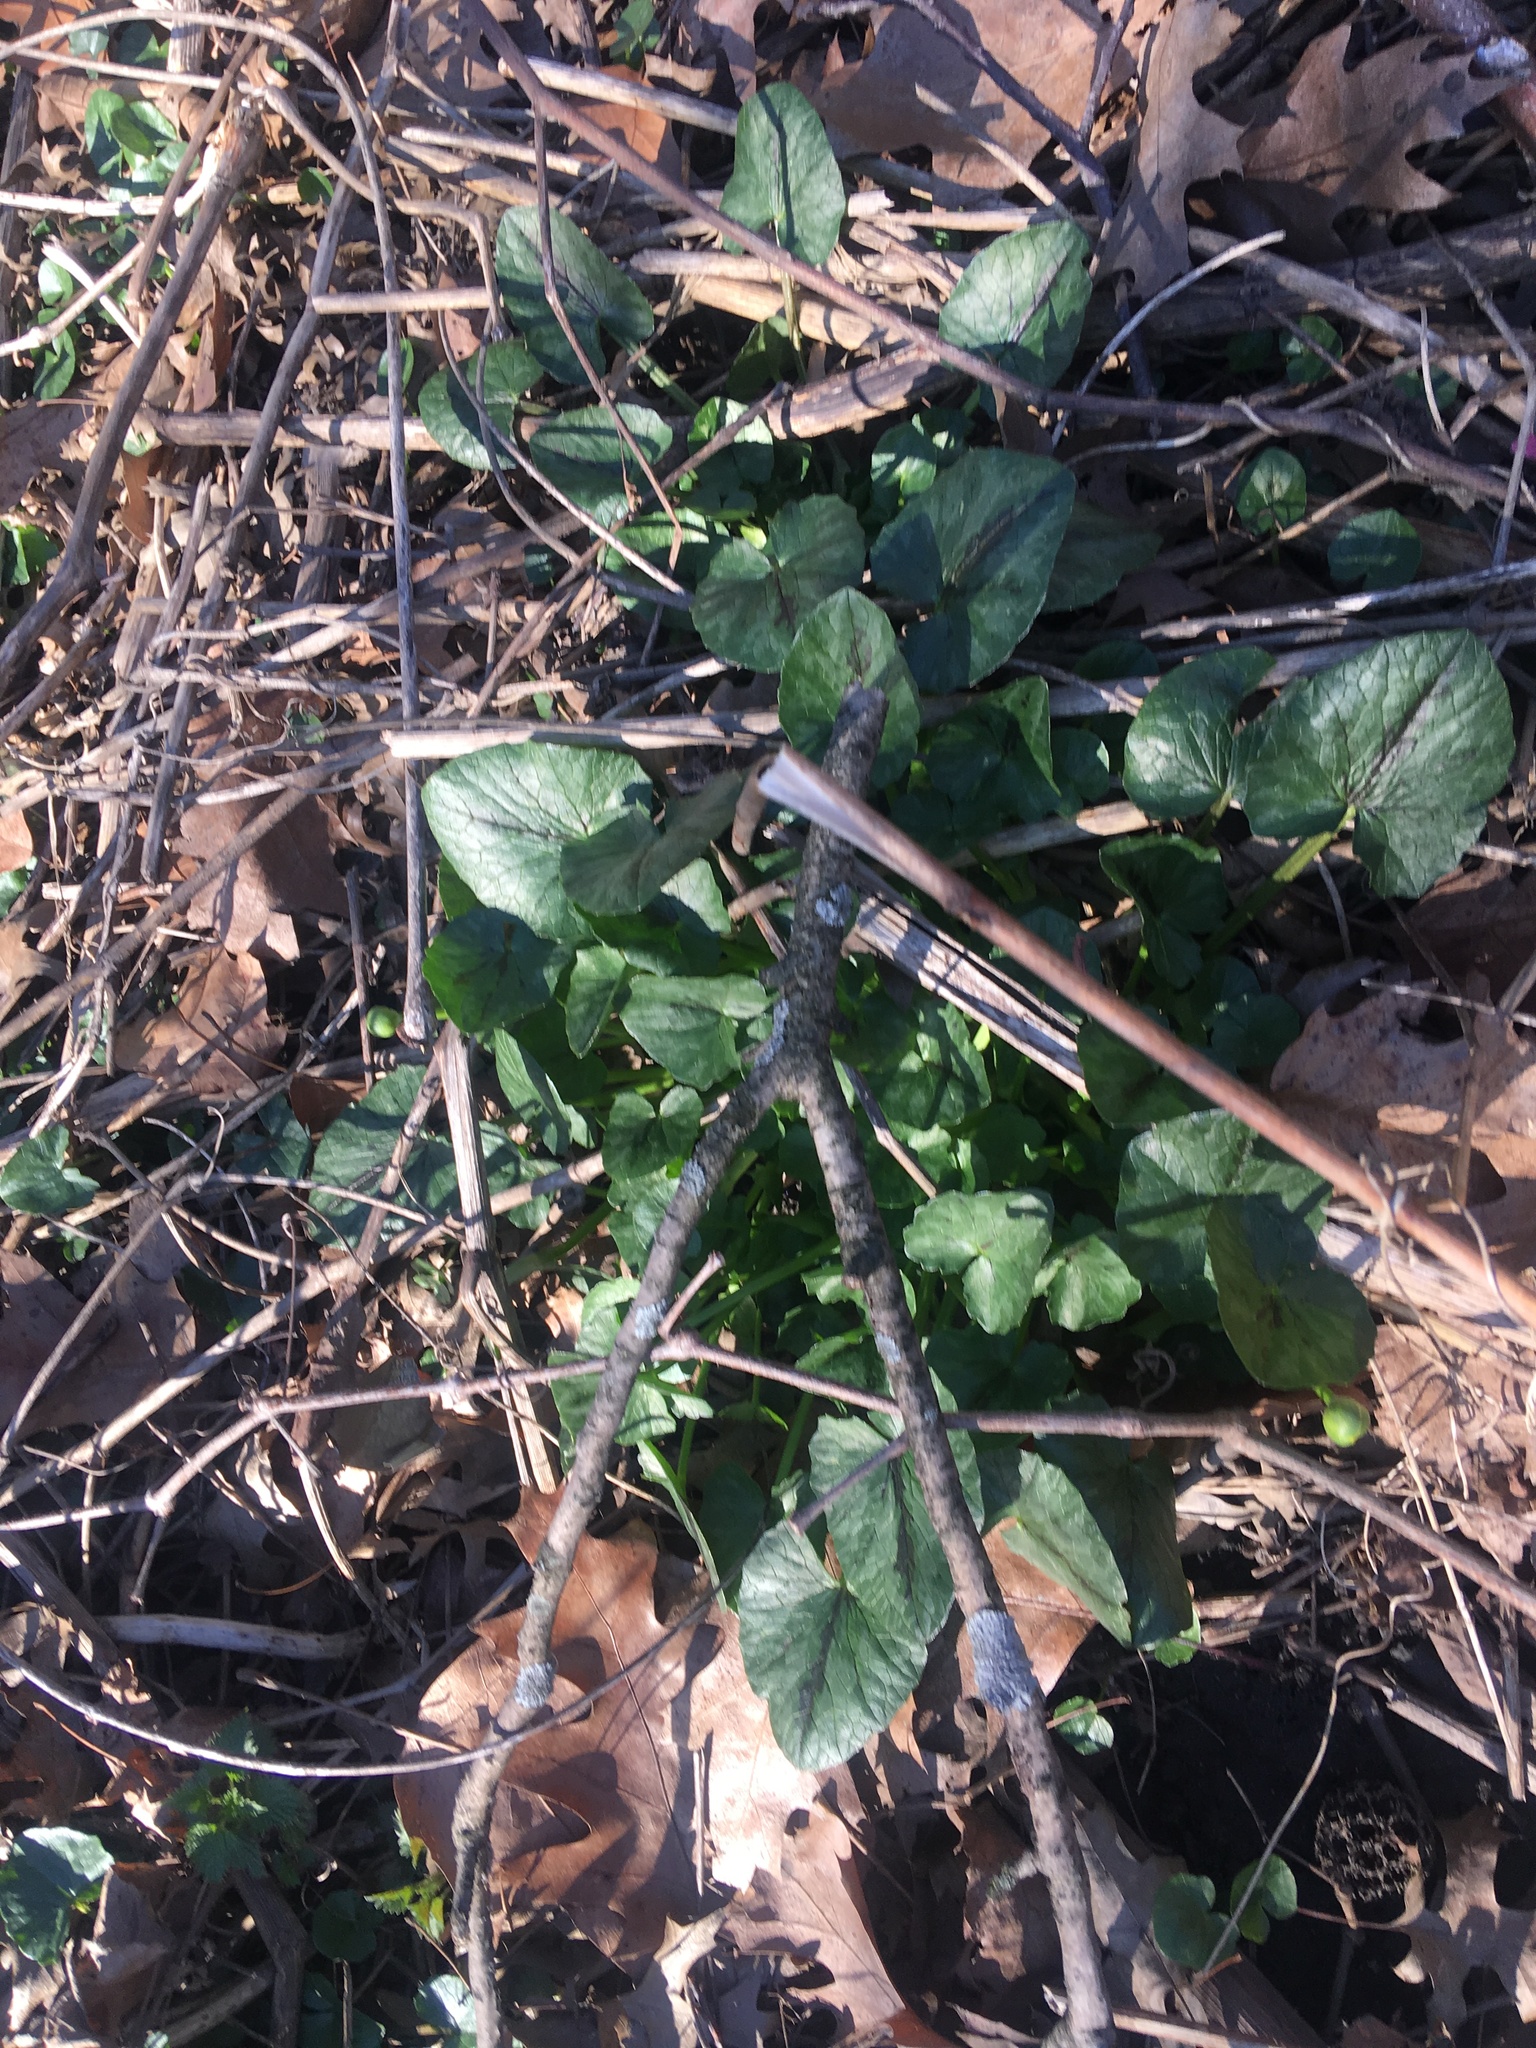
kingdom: Plantae
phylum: Tracheophyta
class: Magnoliopsida
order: Ranunculales
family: Ranunculaceae
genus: Ficaria
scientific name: Ficaria verna
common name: Lesser celandine
